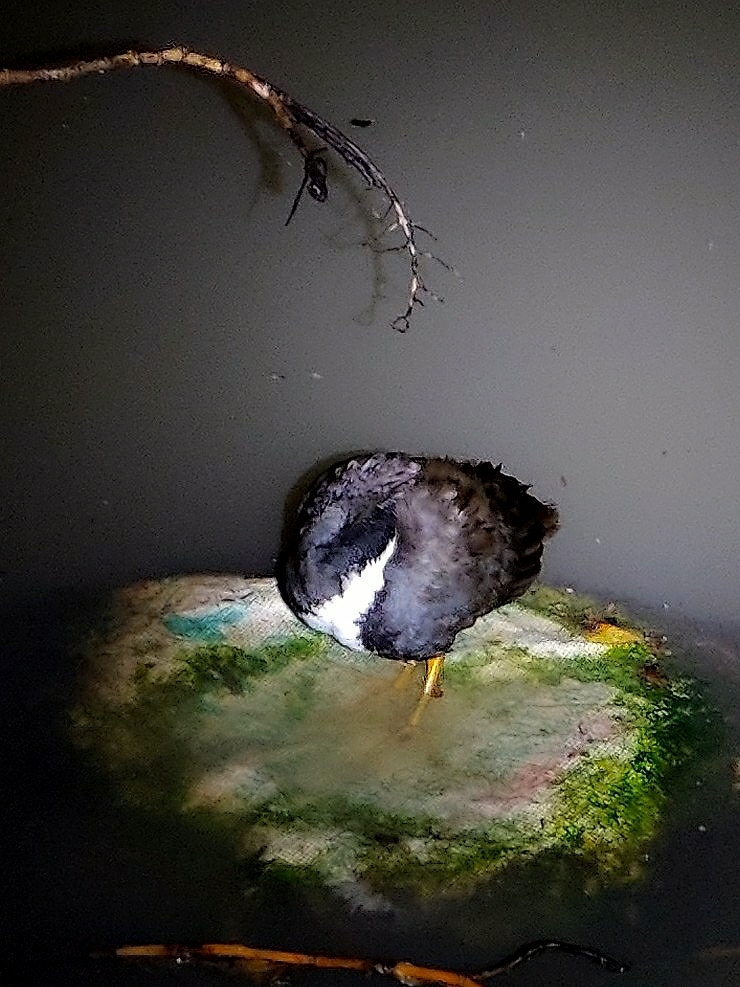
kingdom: Animalia
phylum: Chordata
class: Aves
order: Gruiformes
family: Rallidae
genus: Amaurornis
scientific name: Amaurornis phoenicurus
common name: White-breasted waterhen
